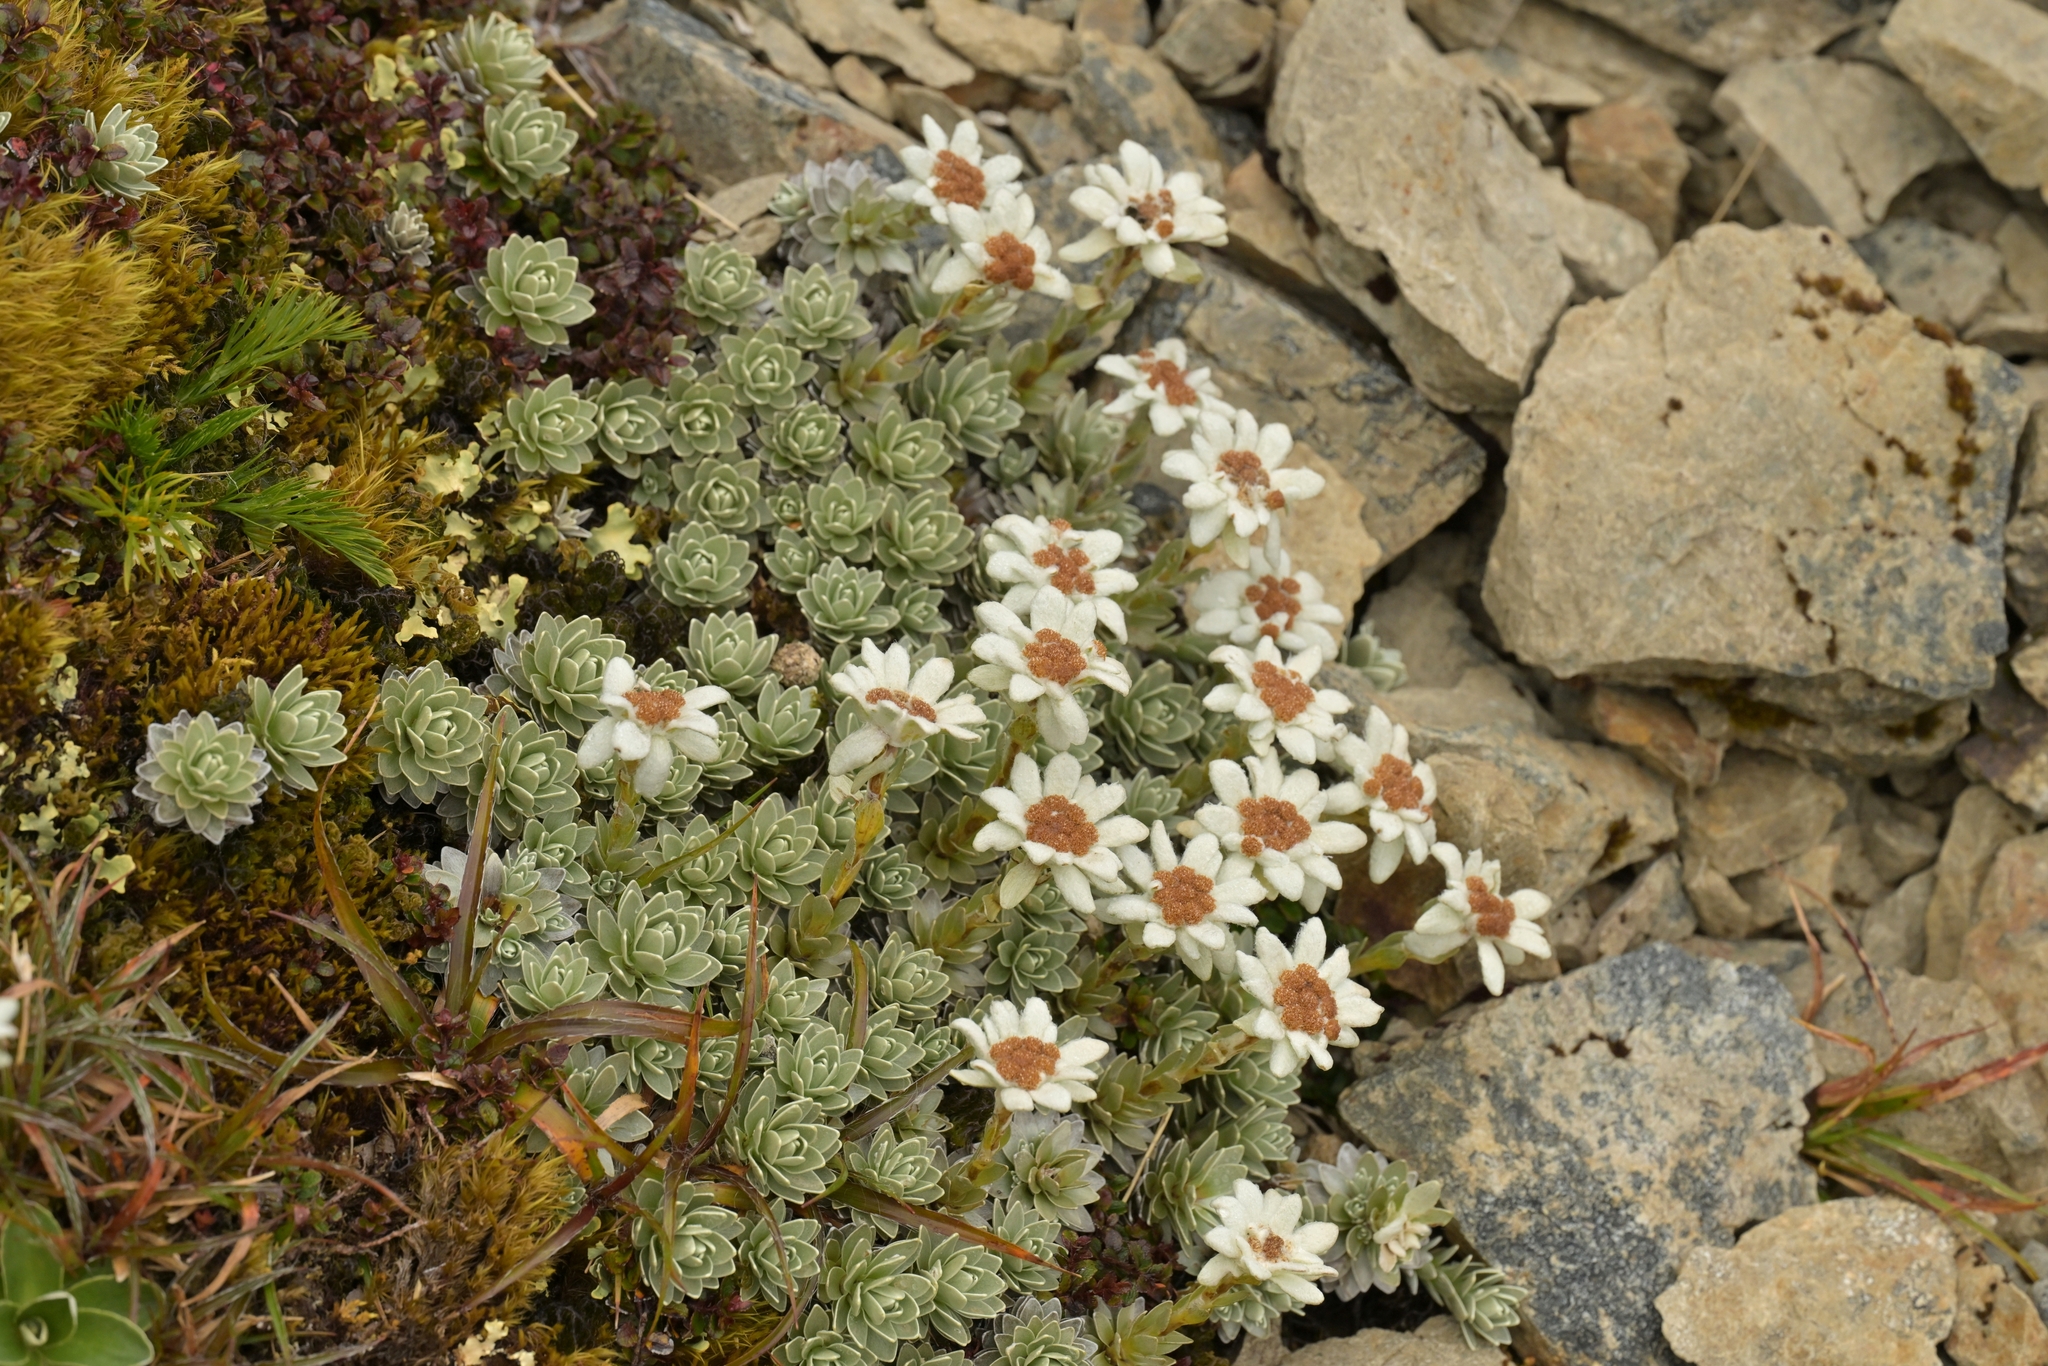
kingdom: Plantae
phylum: Tracheophyta
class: Magnoliopsida
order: Asterales
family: Asteraceae
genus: Leucogenes
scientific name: Leucogenes leontopodium
